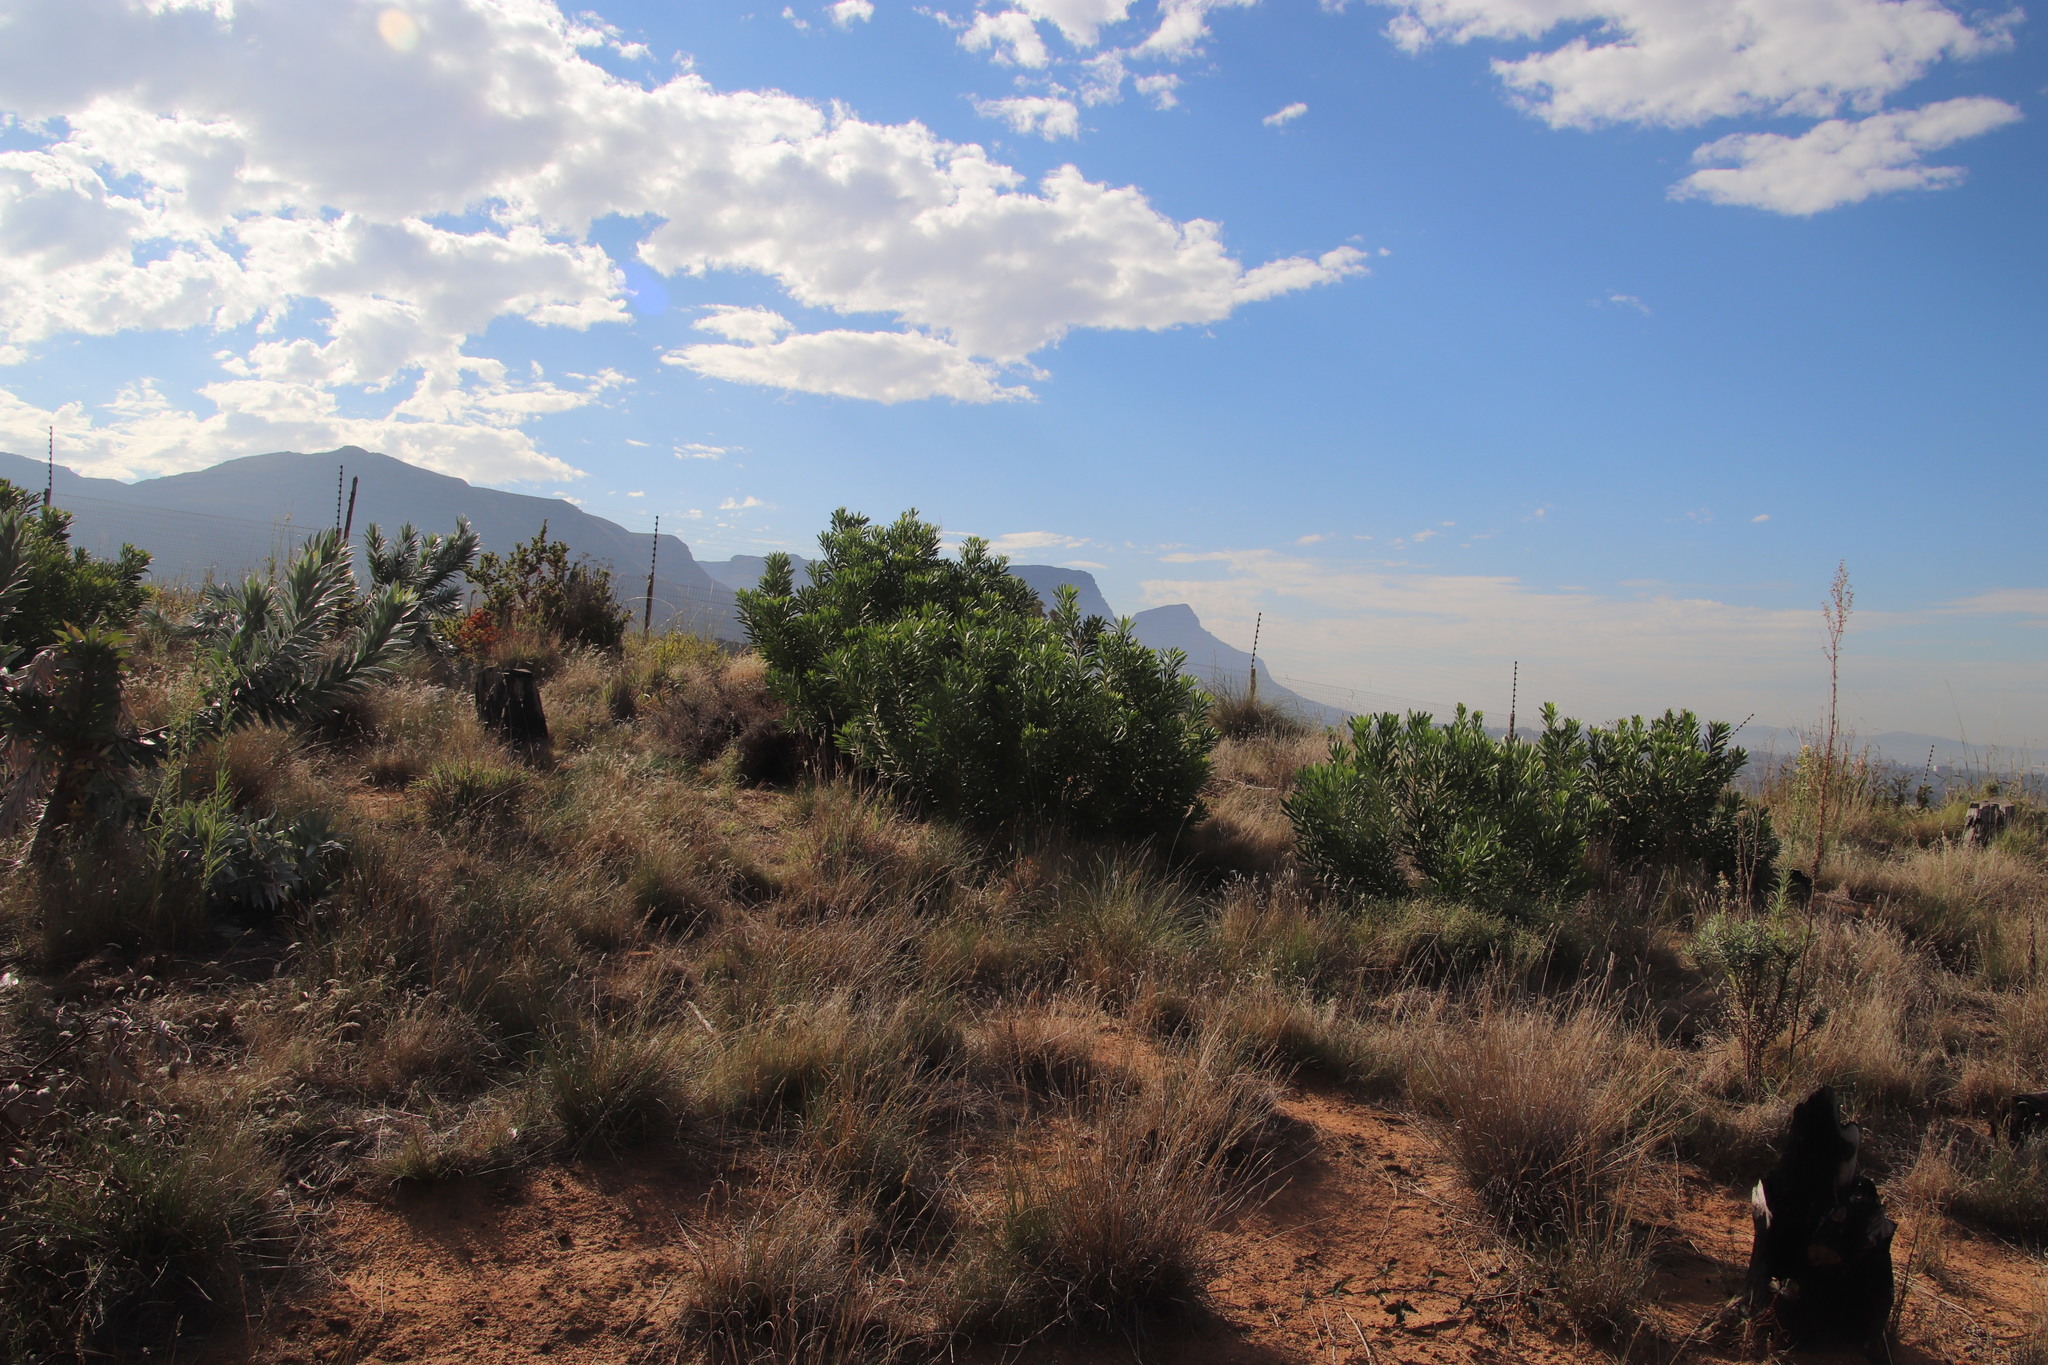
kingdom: Plantae
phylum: Tracheophyta
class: Magnoliopsida
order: Proteales
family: Proteaceae
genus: Protea
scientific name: Protea repens
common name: Sugarbush
